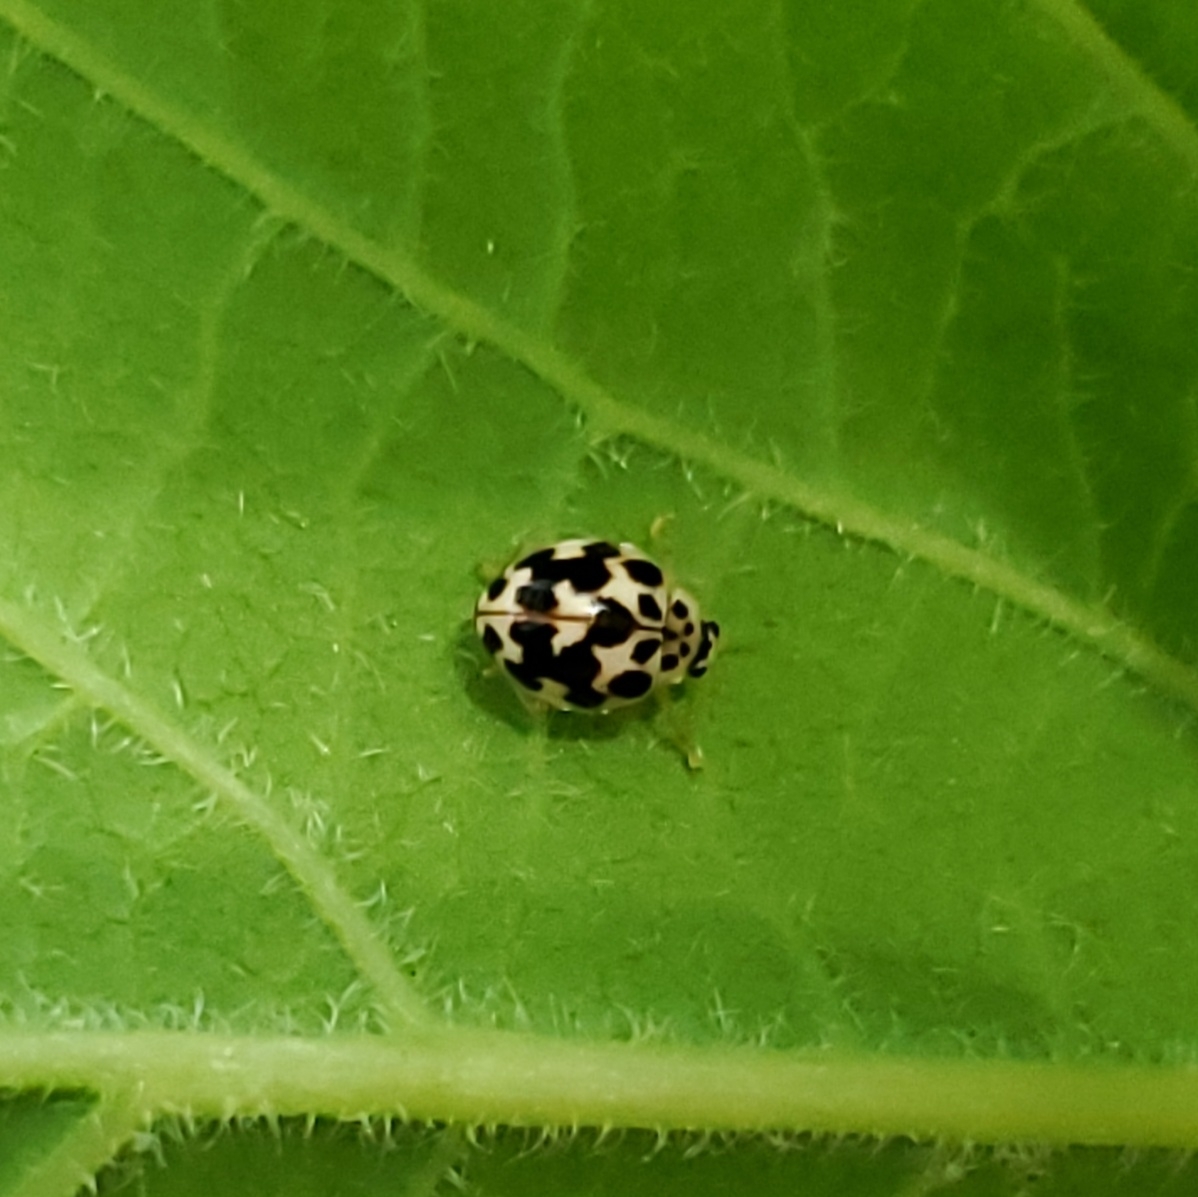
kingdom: Animalia
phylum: Arthropoda
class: Insecta
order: Coleoptera
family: Coccinellidae
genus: Psyllobora
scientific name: Psyllobora vigintimaculata
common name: Ladybird beetle
